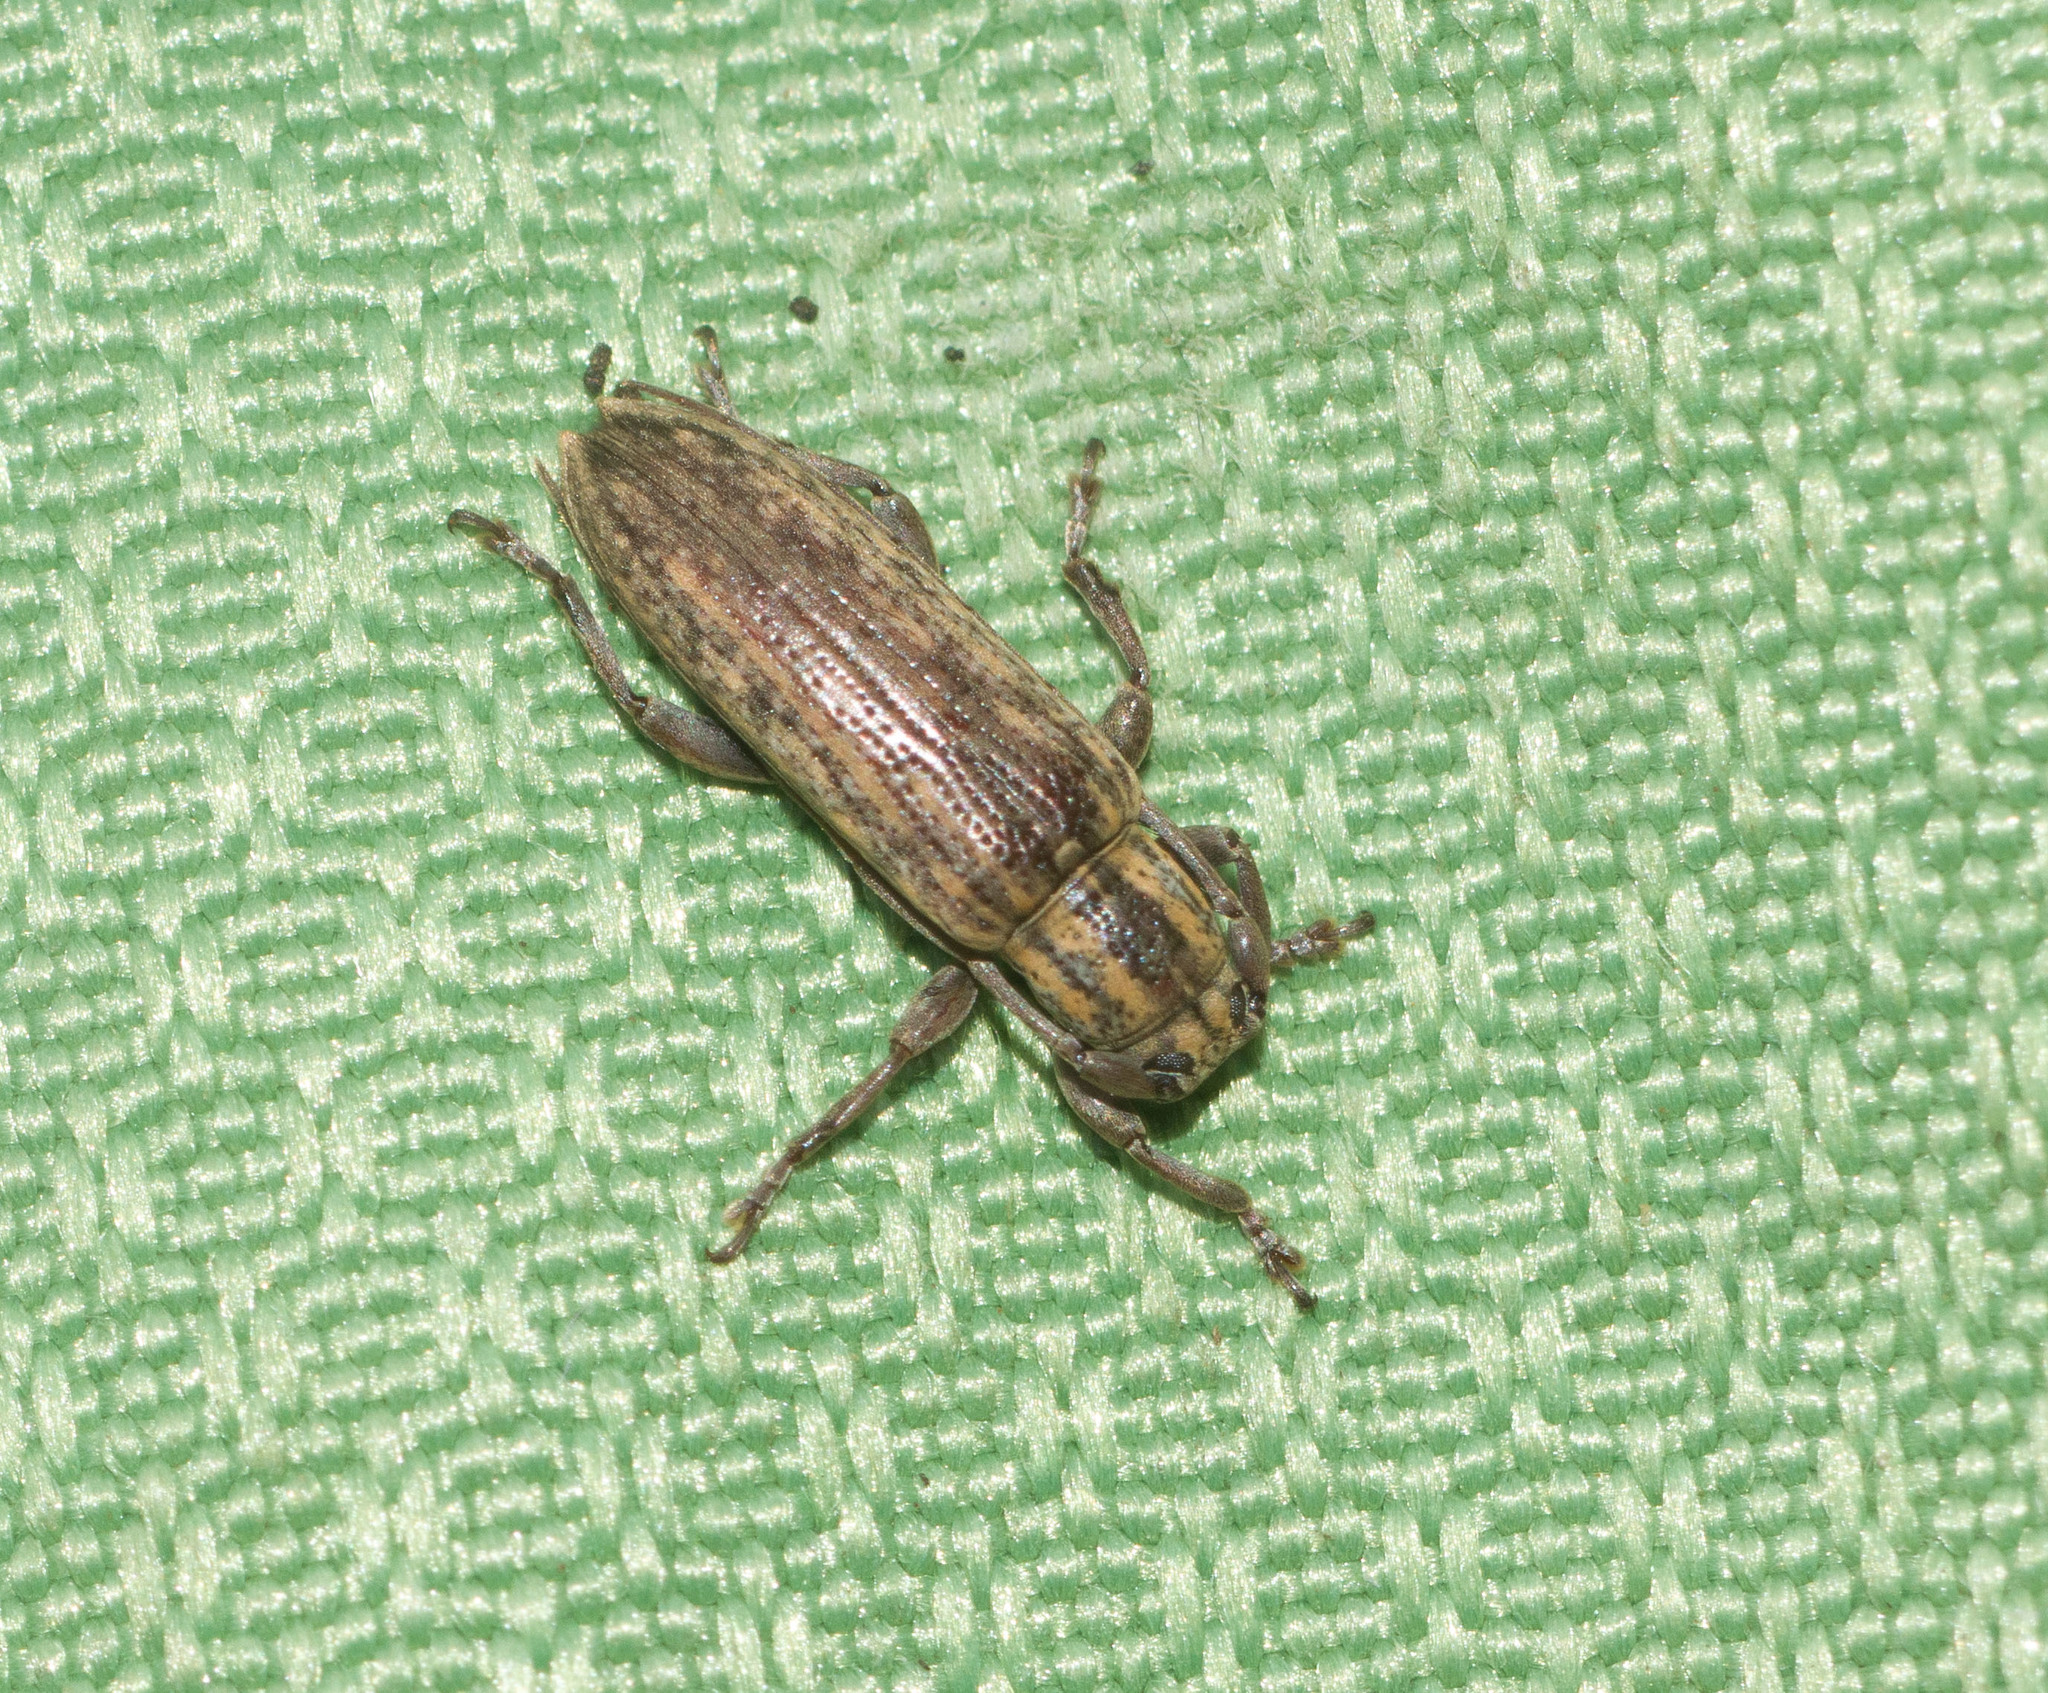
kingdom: Animalia
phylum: Arthropoda
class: Insecta
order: Coleoptera
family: Cerambycidae
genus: Mycerinopsis
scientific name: Mycerinopsis alternans
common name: Long horned beetle
